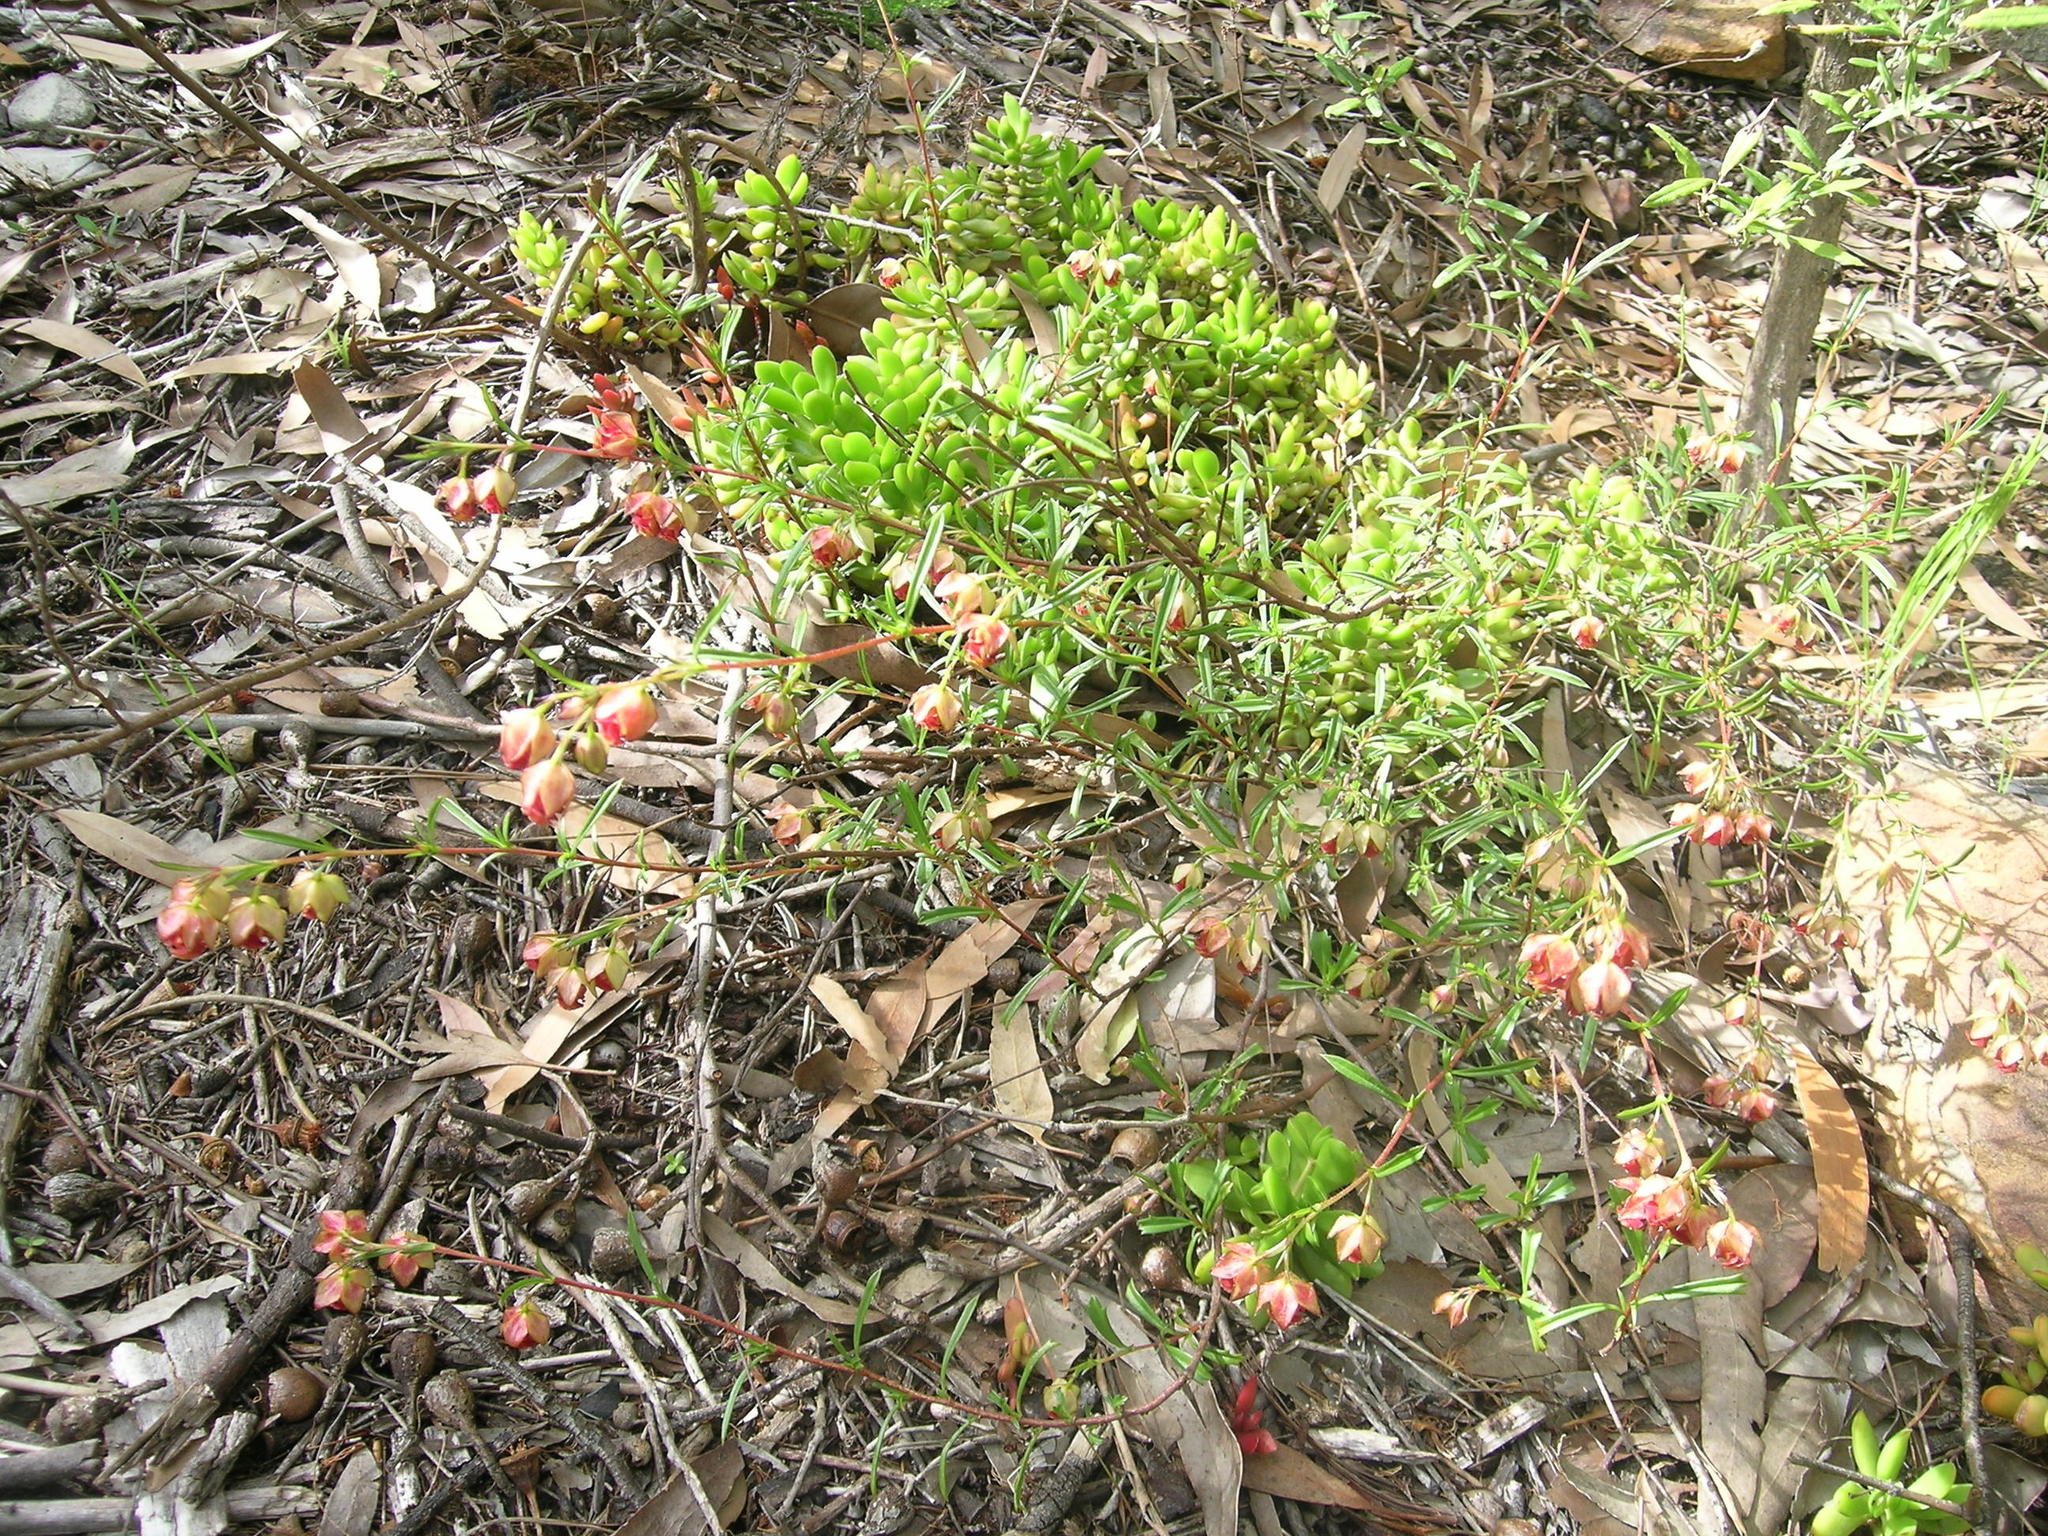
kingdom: Plantae
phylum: Tracheophyta
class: Magnoliopsida
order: Malvales
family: Malvaceae
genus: Hermannia
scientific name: Hermannia angularis
